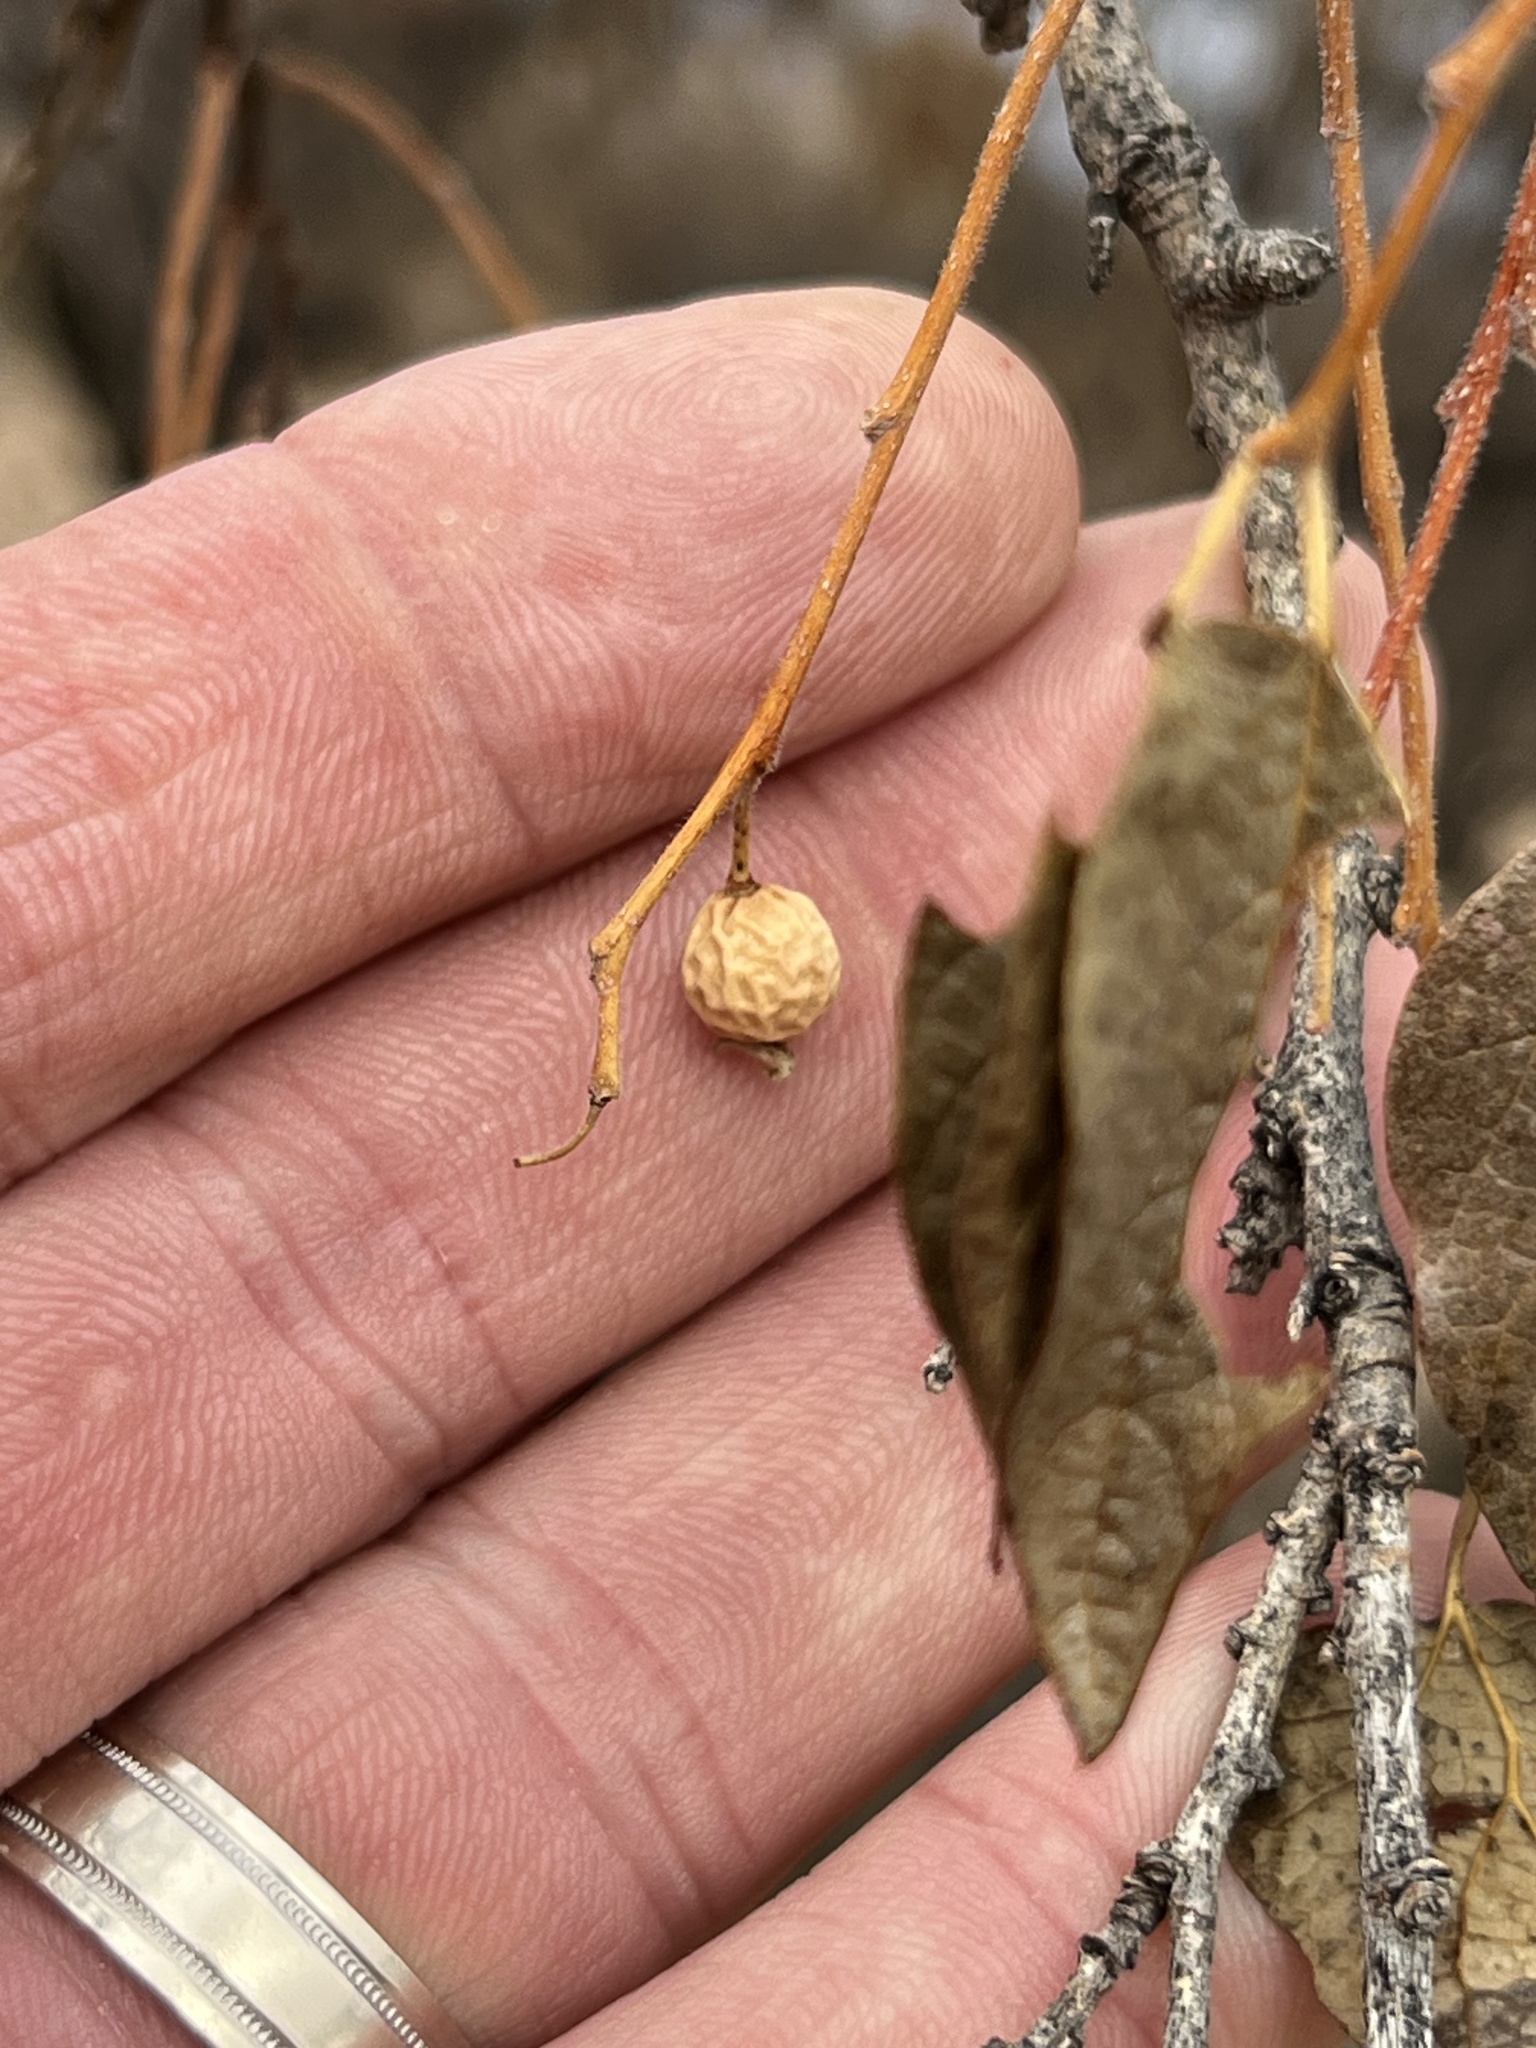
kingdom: Plantae
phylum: Tracheophyta
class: Magnoliopsida
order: Rosales
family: Cannabaceae
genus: Celtis
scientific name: Celtis reticulata
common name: Netleaf hackberry
